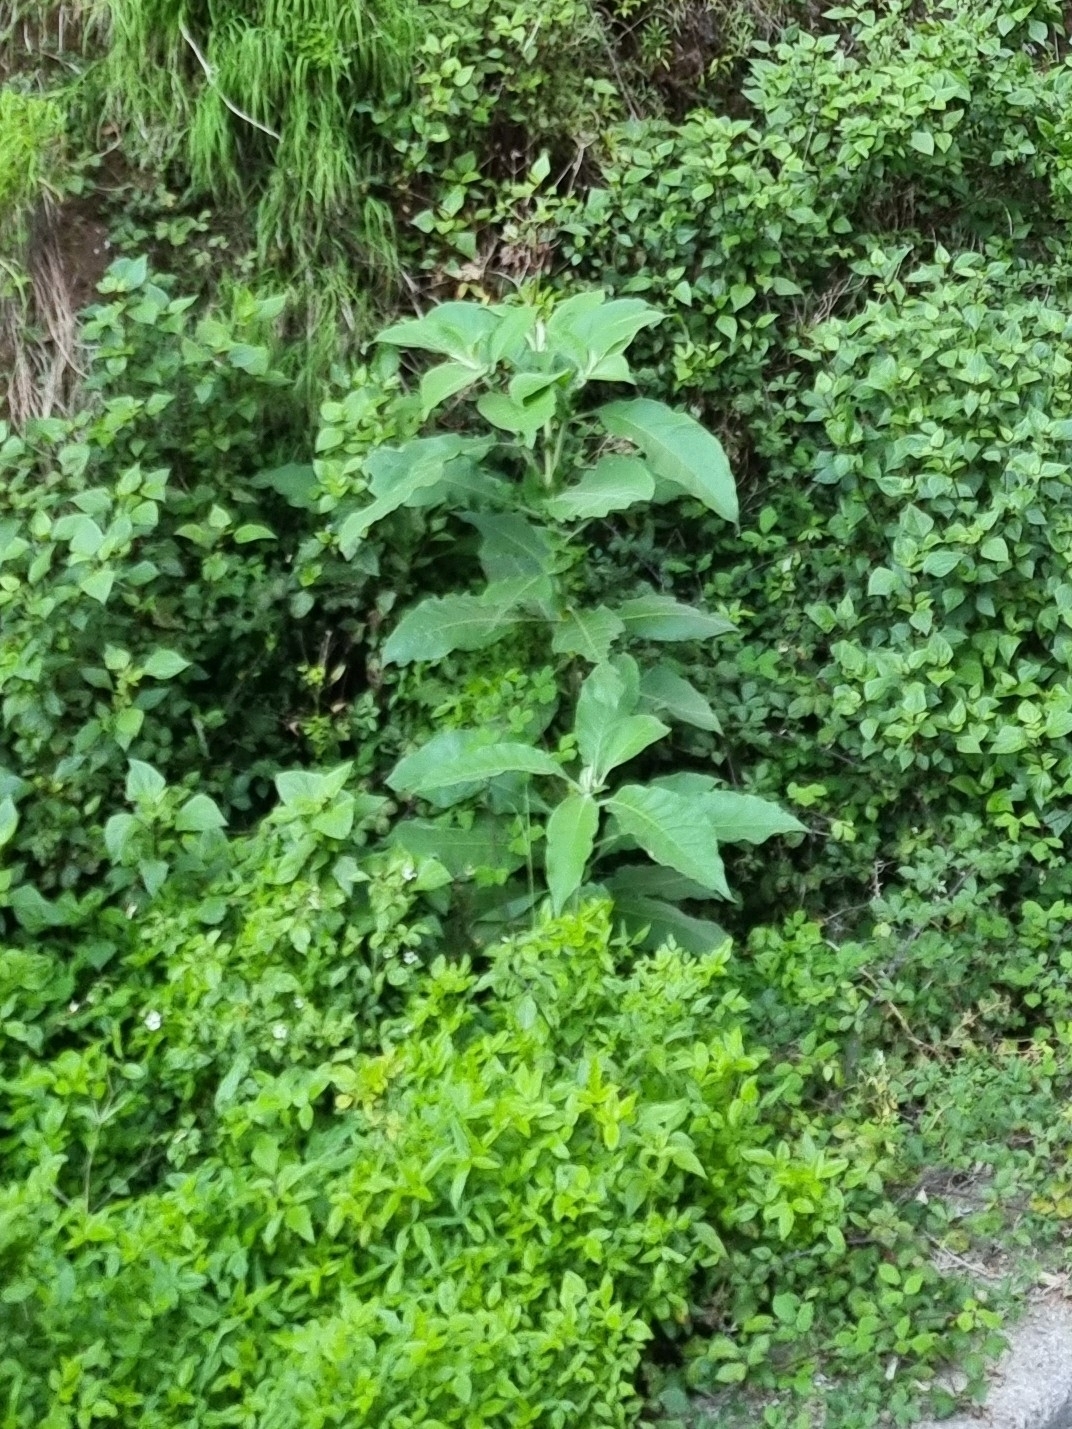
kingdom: Plantae
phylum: Tracheophyta
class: Magnoliopsida
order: Solanales
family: Solanaceae
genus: Solanum
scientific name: Solanum mauritianum
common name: Earleaf nightshade
